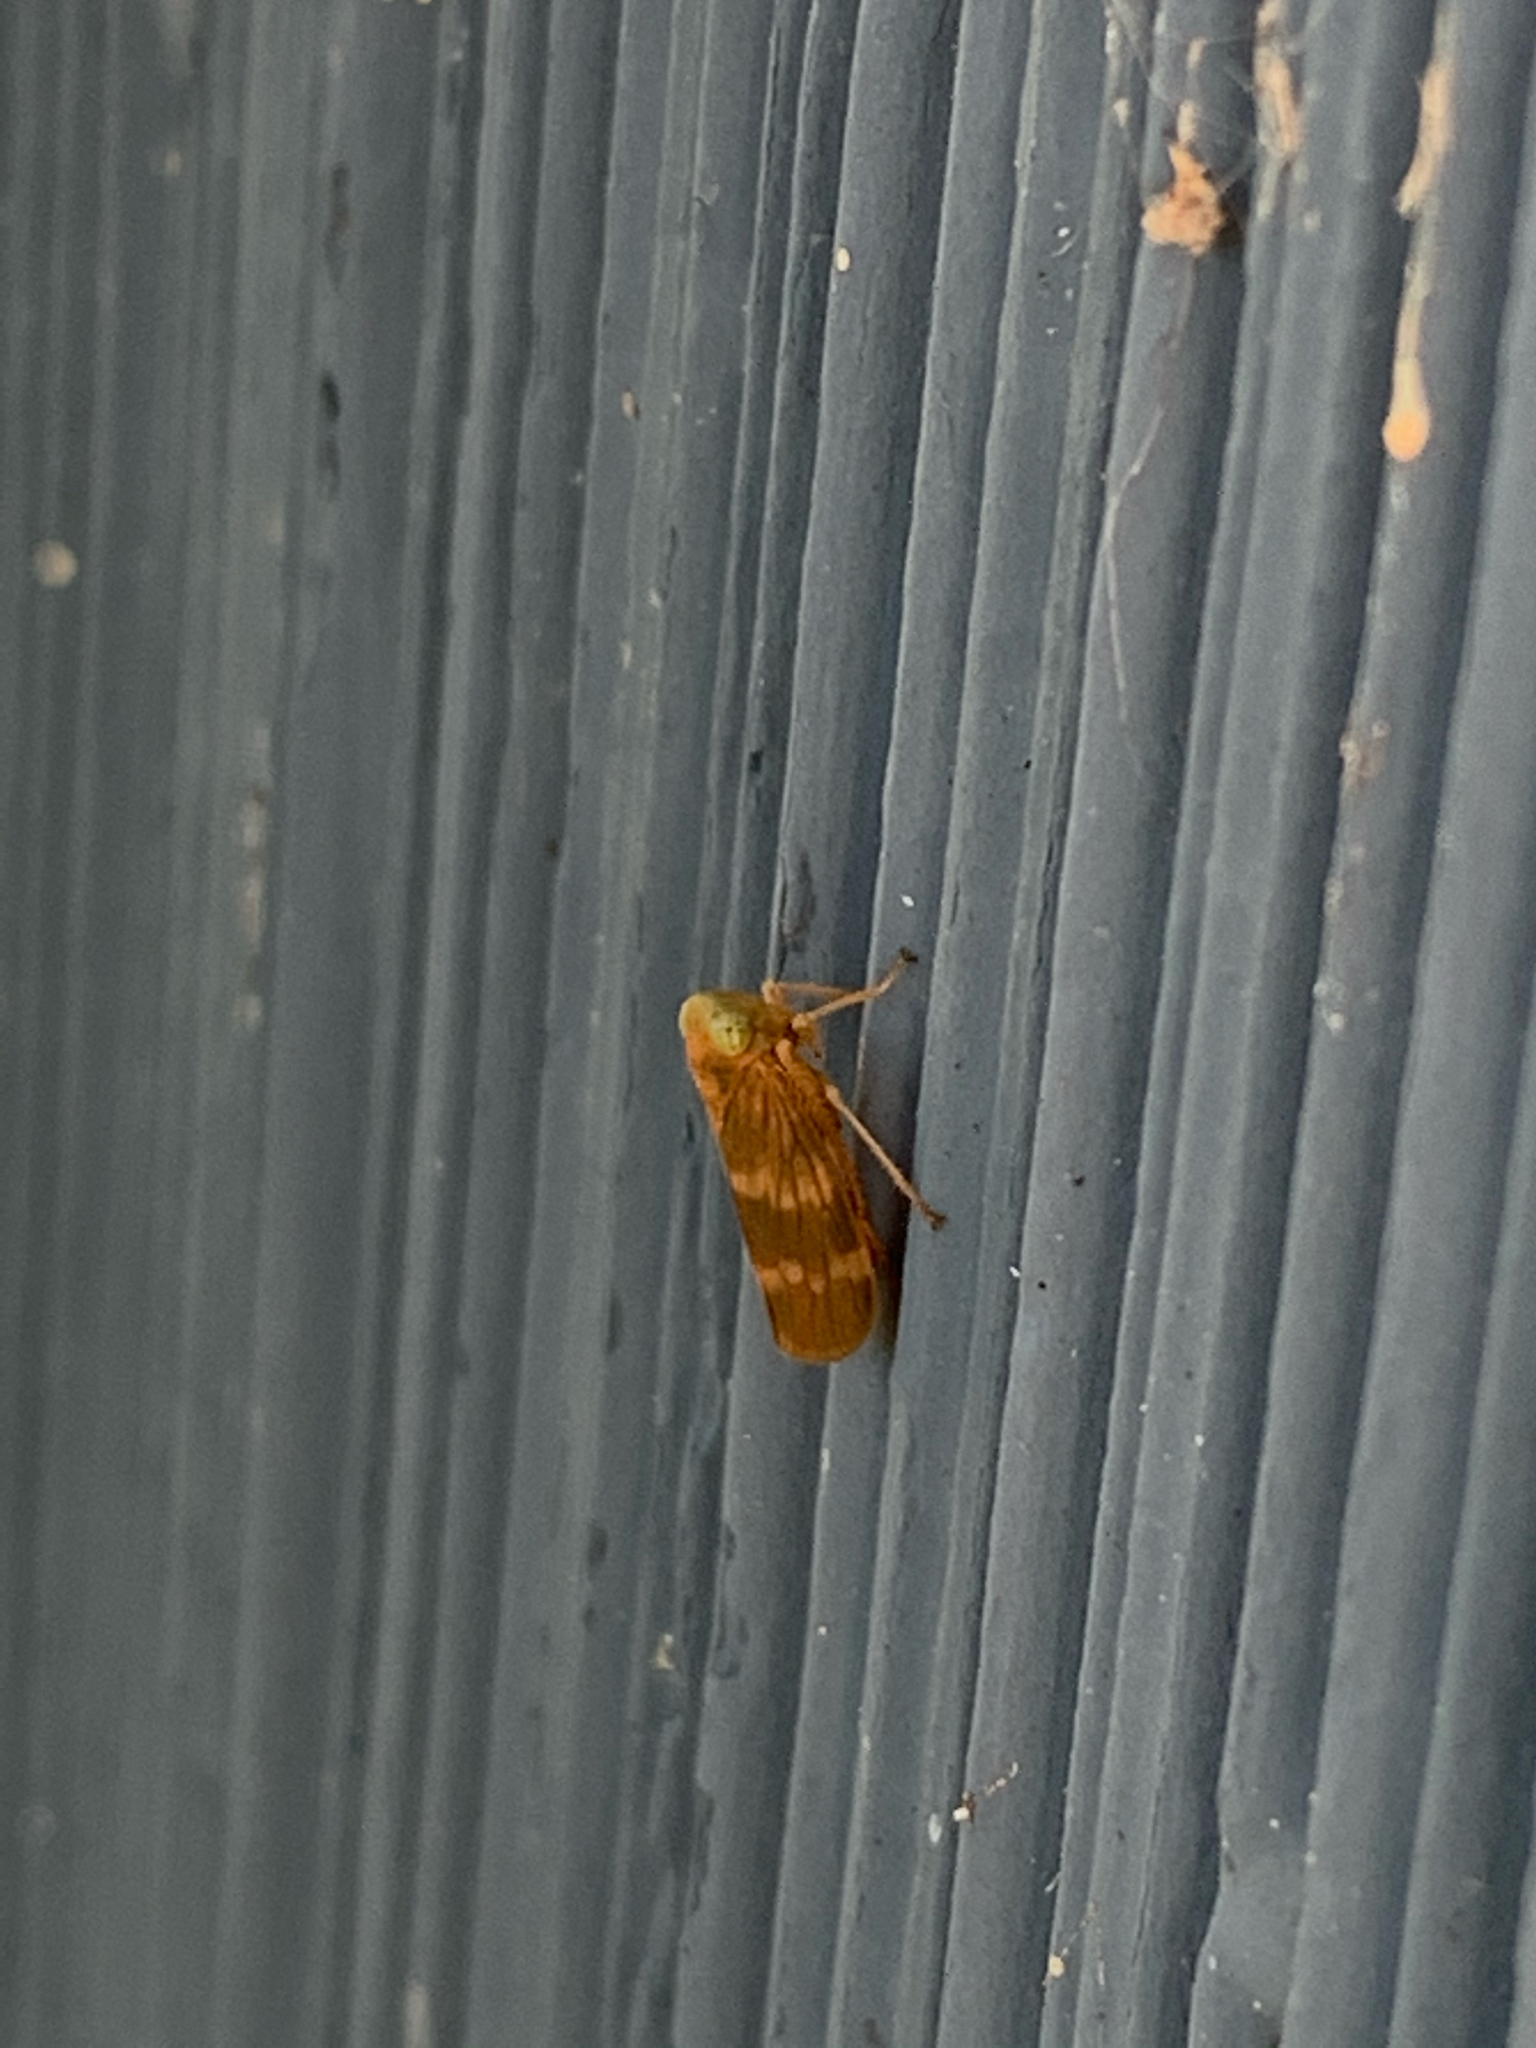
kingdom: Animalia
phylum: Arthropoda
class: Insecta
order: Hemiptera
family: Cicadellidae
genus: Jikradia
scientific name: Jikradia olitoria
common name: Coppery leafhopper
